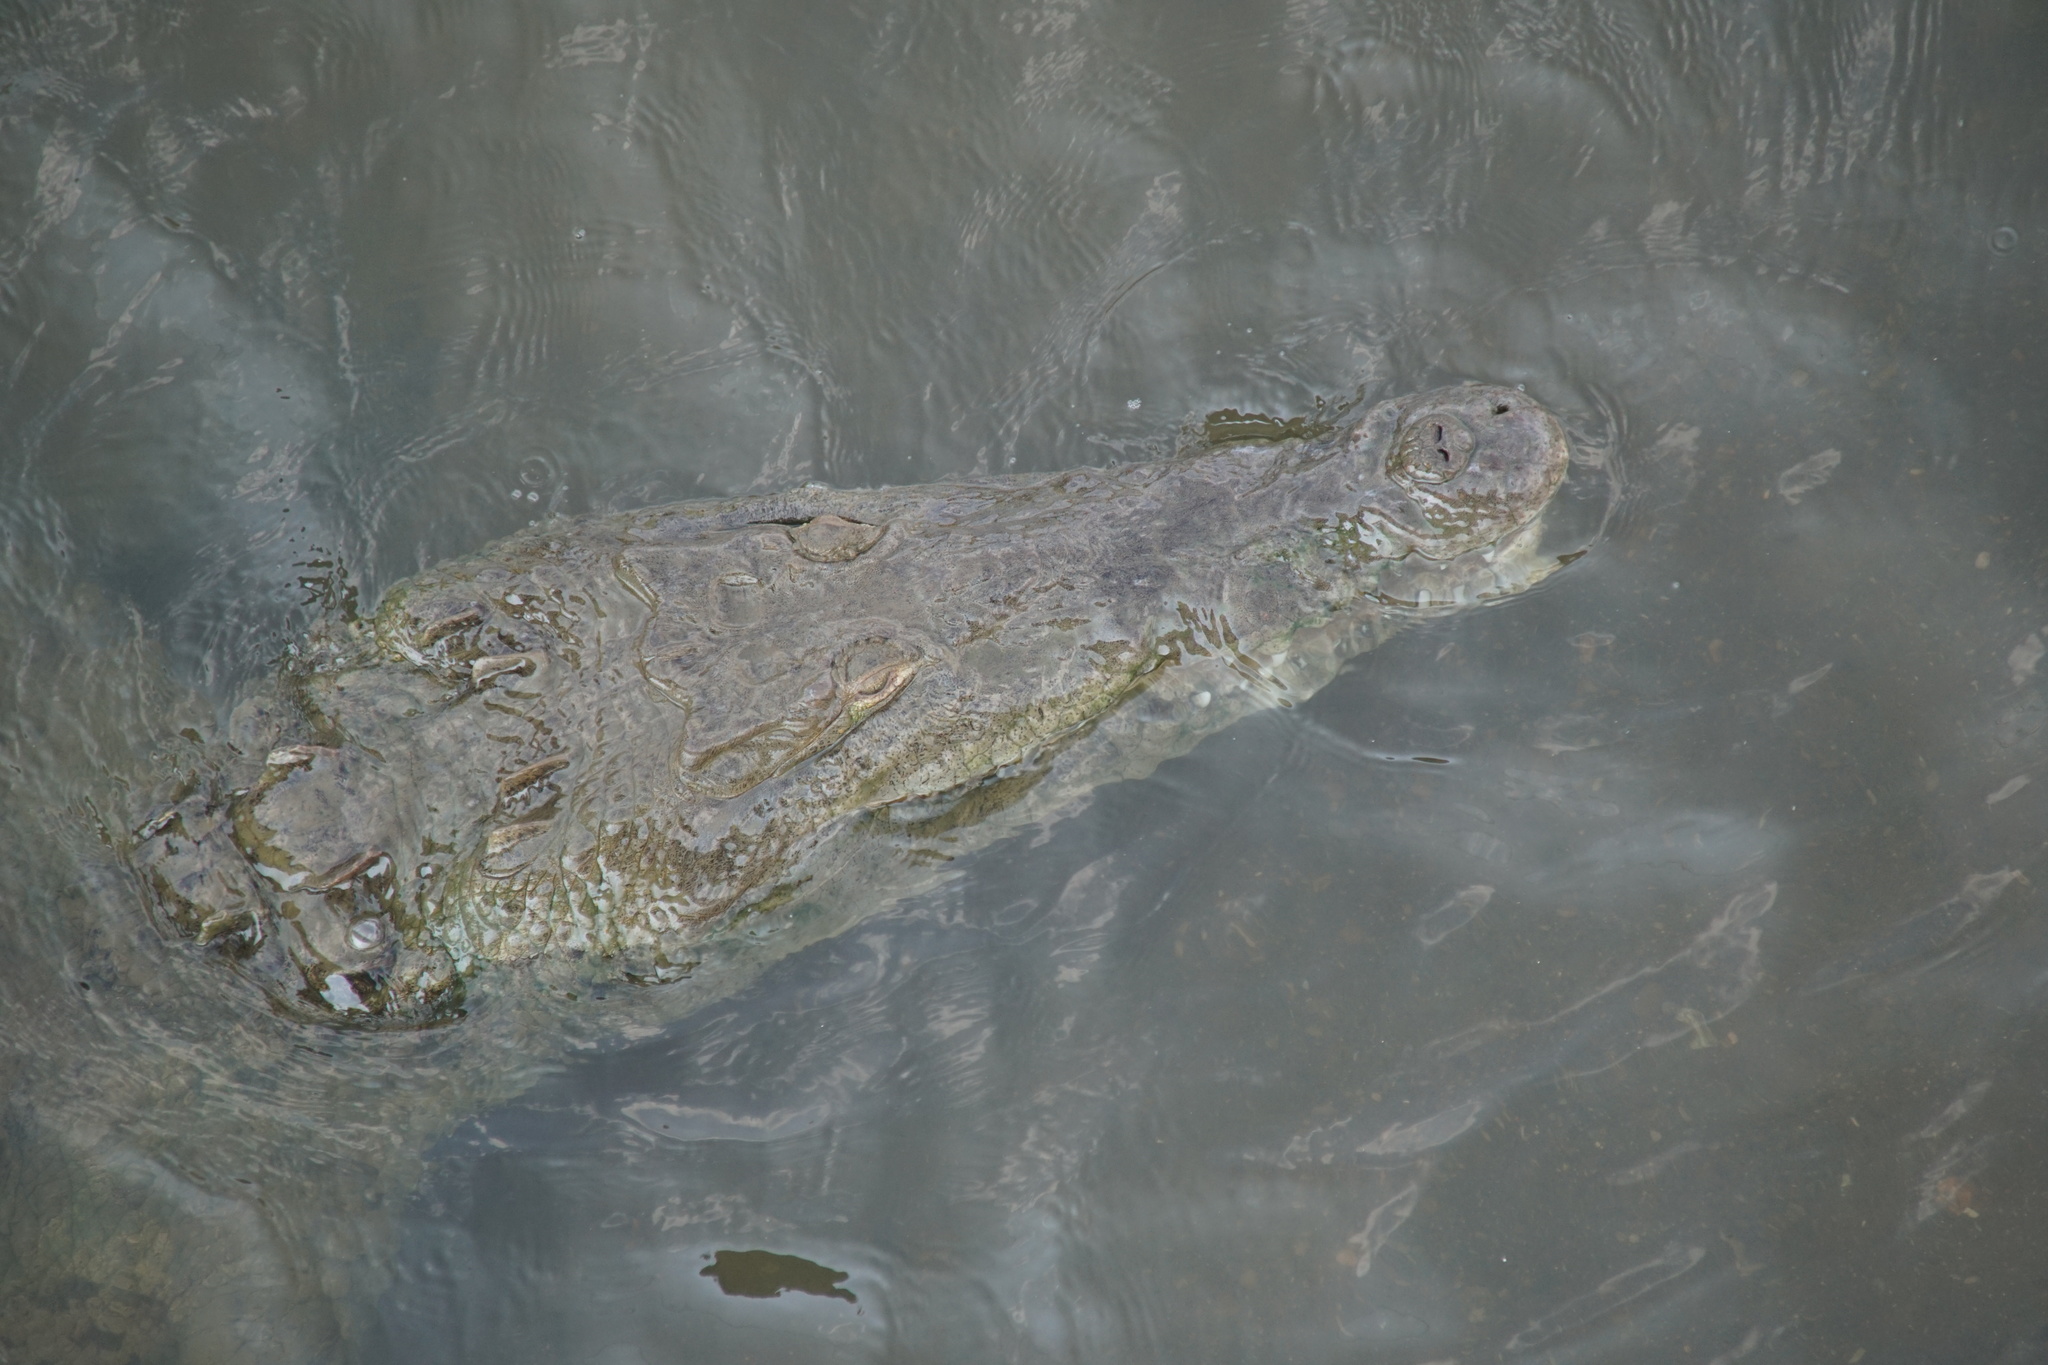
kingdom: Animalia
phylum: Chordata
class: Crocodylia
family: Crocodylidae
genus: Crocodylus
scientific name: Crocodylus acutus
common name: American crocodile
